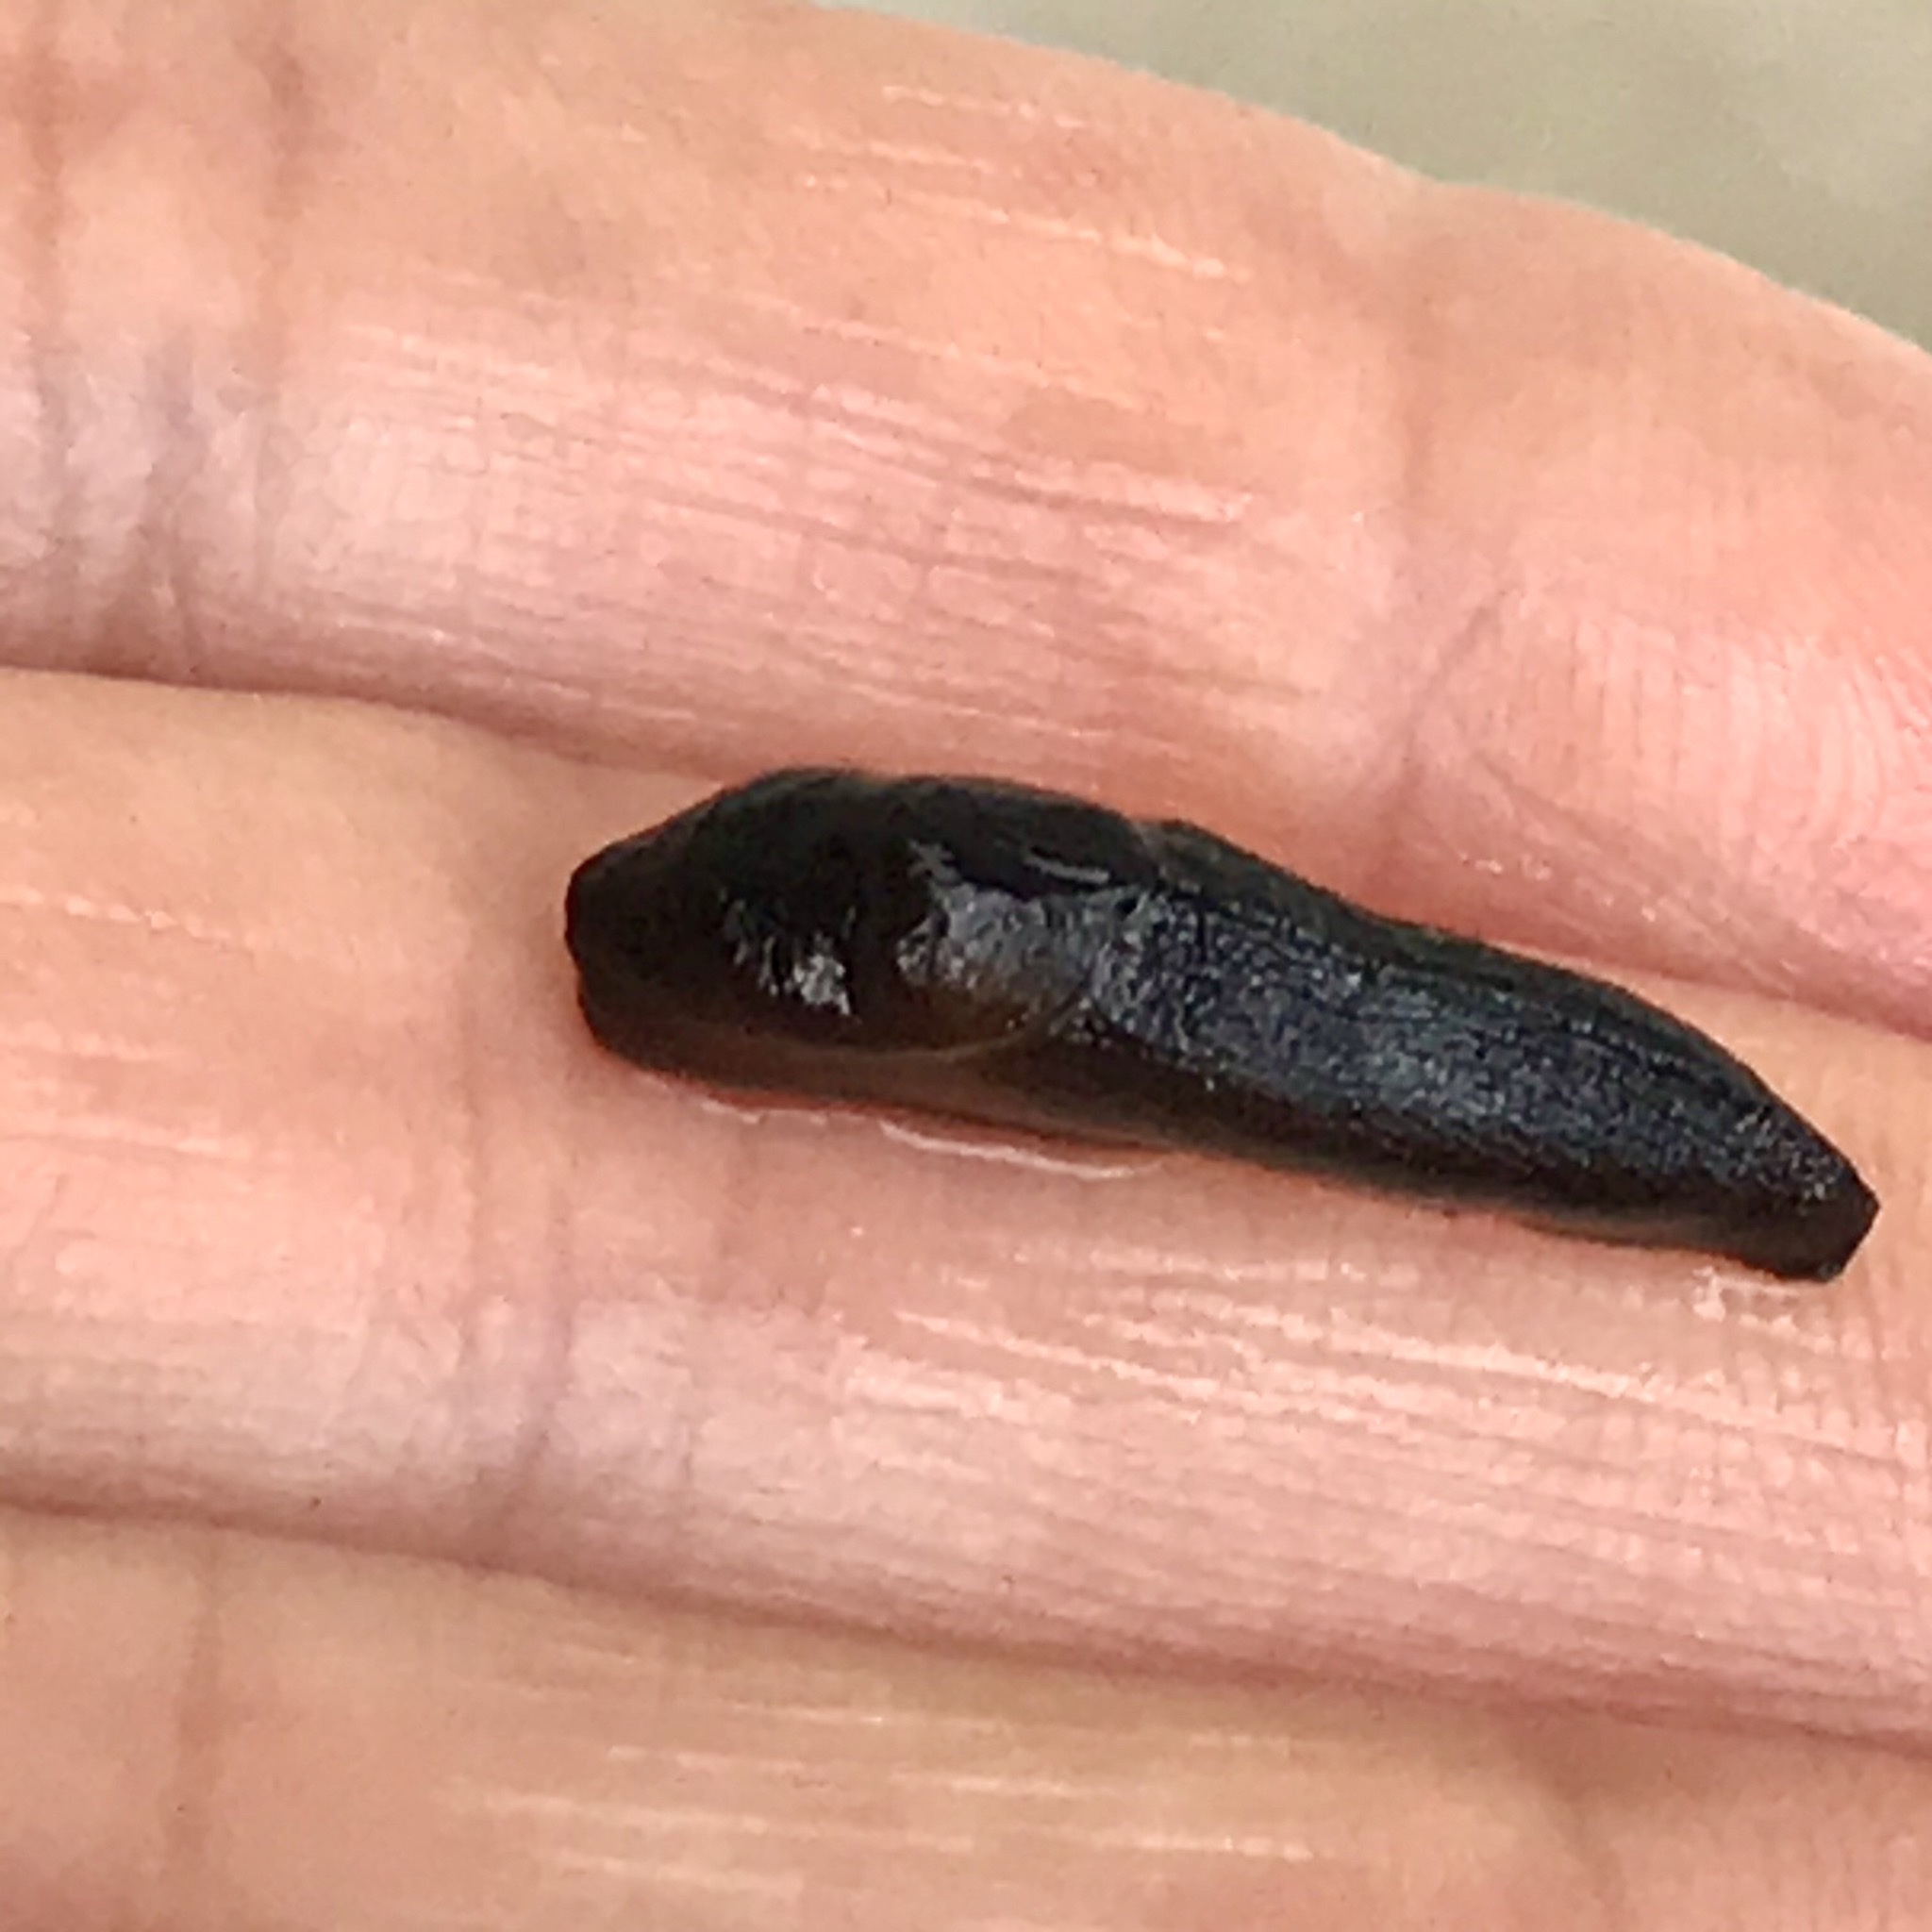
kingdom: Animalia
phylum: Mollusca
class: Gastropoda
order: Stylommatophora
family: Milacidae
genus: Milax
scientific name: Milax gagates
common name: Greenhouse slug
